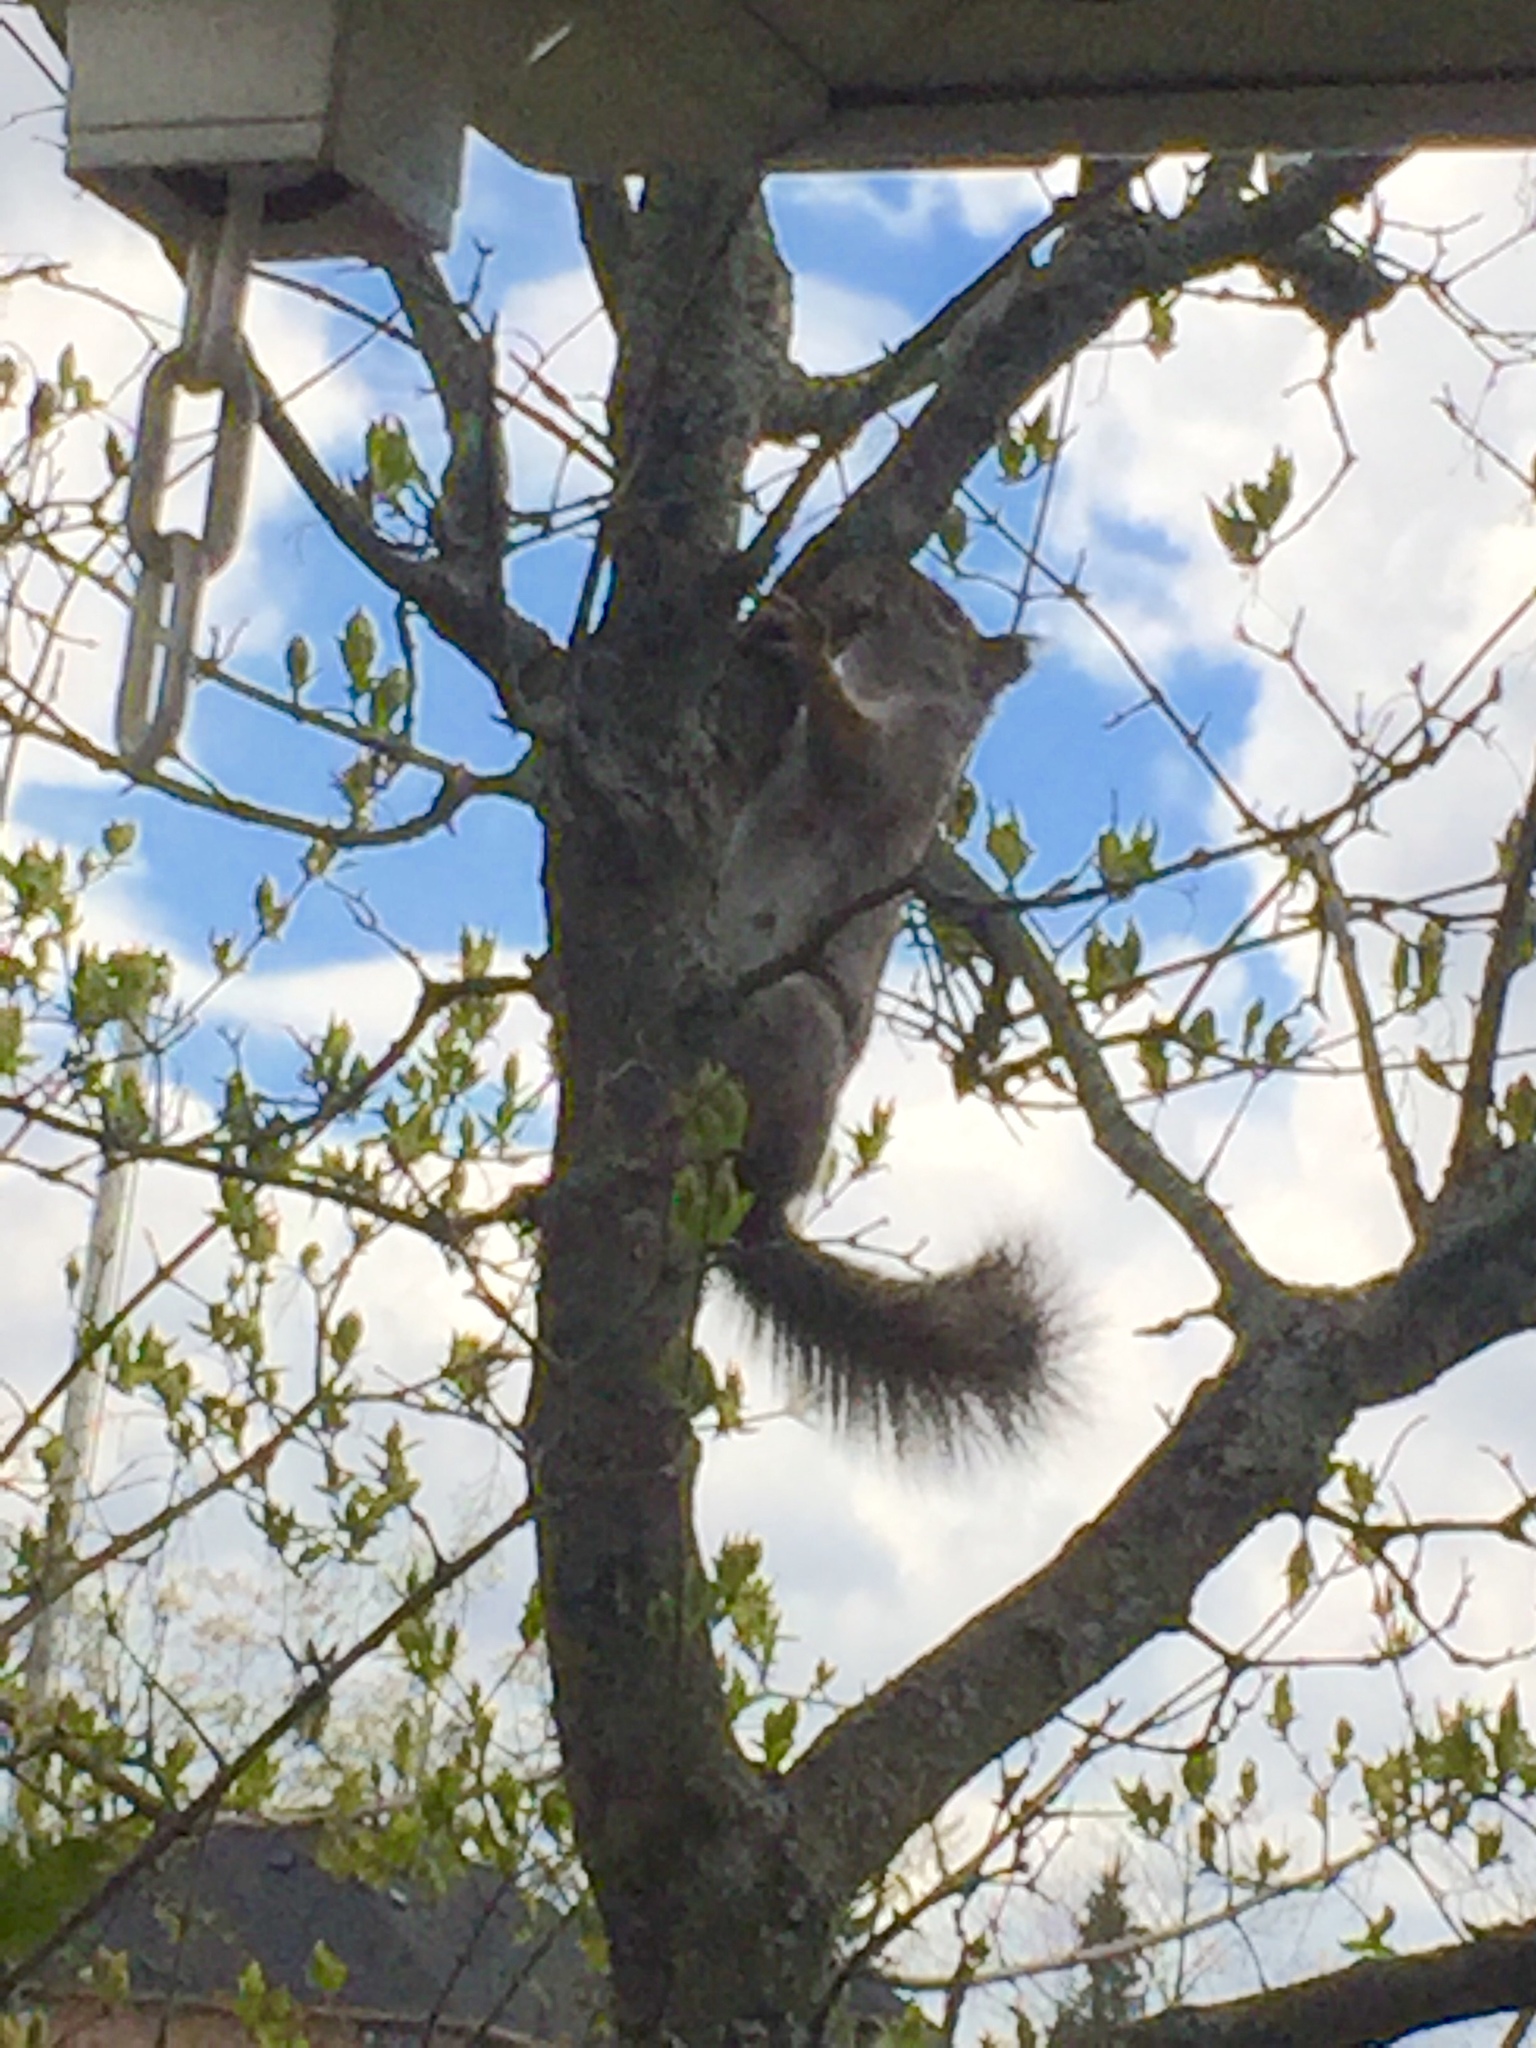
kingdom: Animalia
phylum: Chordata
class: Mammalia
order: Rodentia
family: Sciuridae
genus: Tamiasciurus
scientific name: Tamiasciurus hudsonicus
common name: Red squirrel
